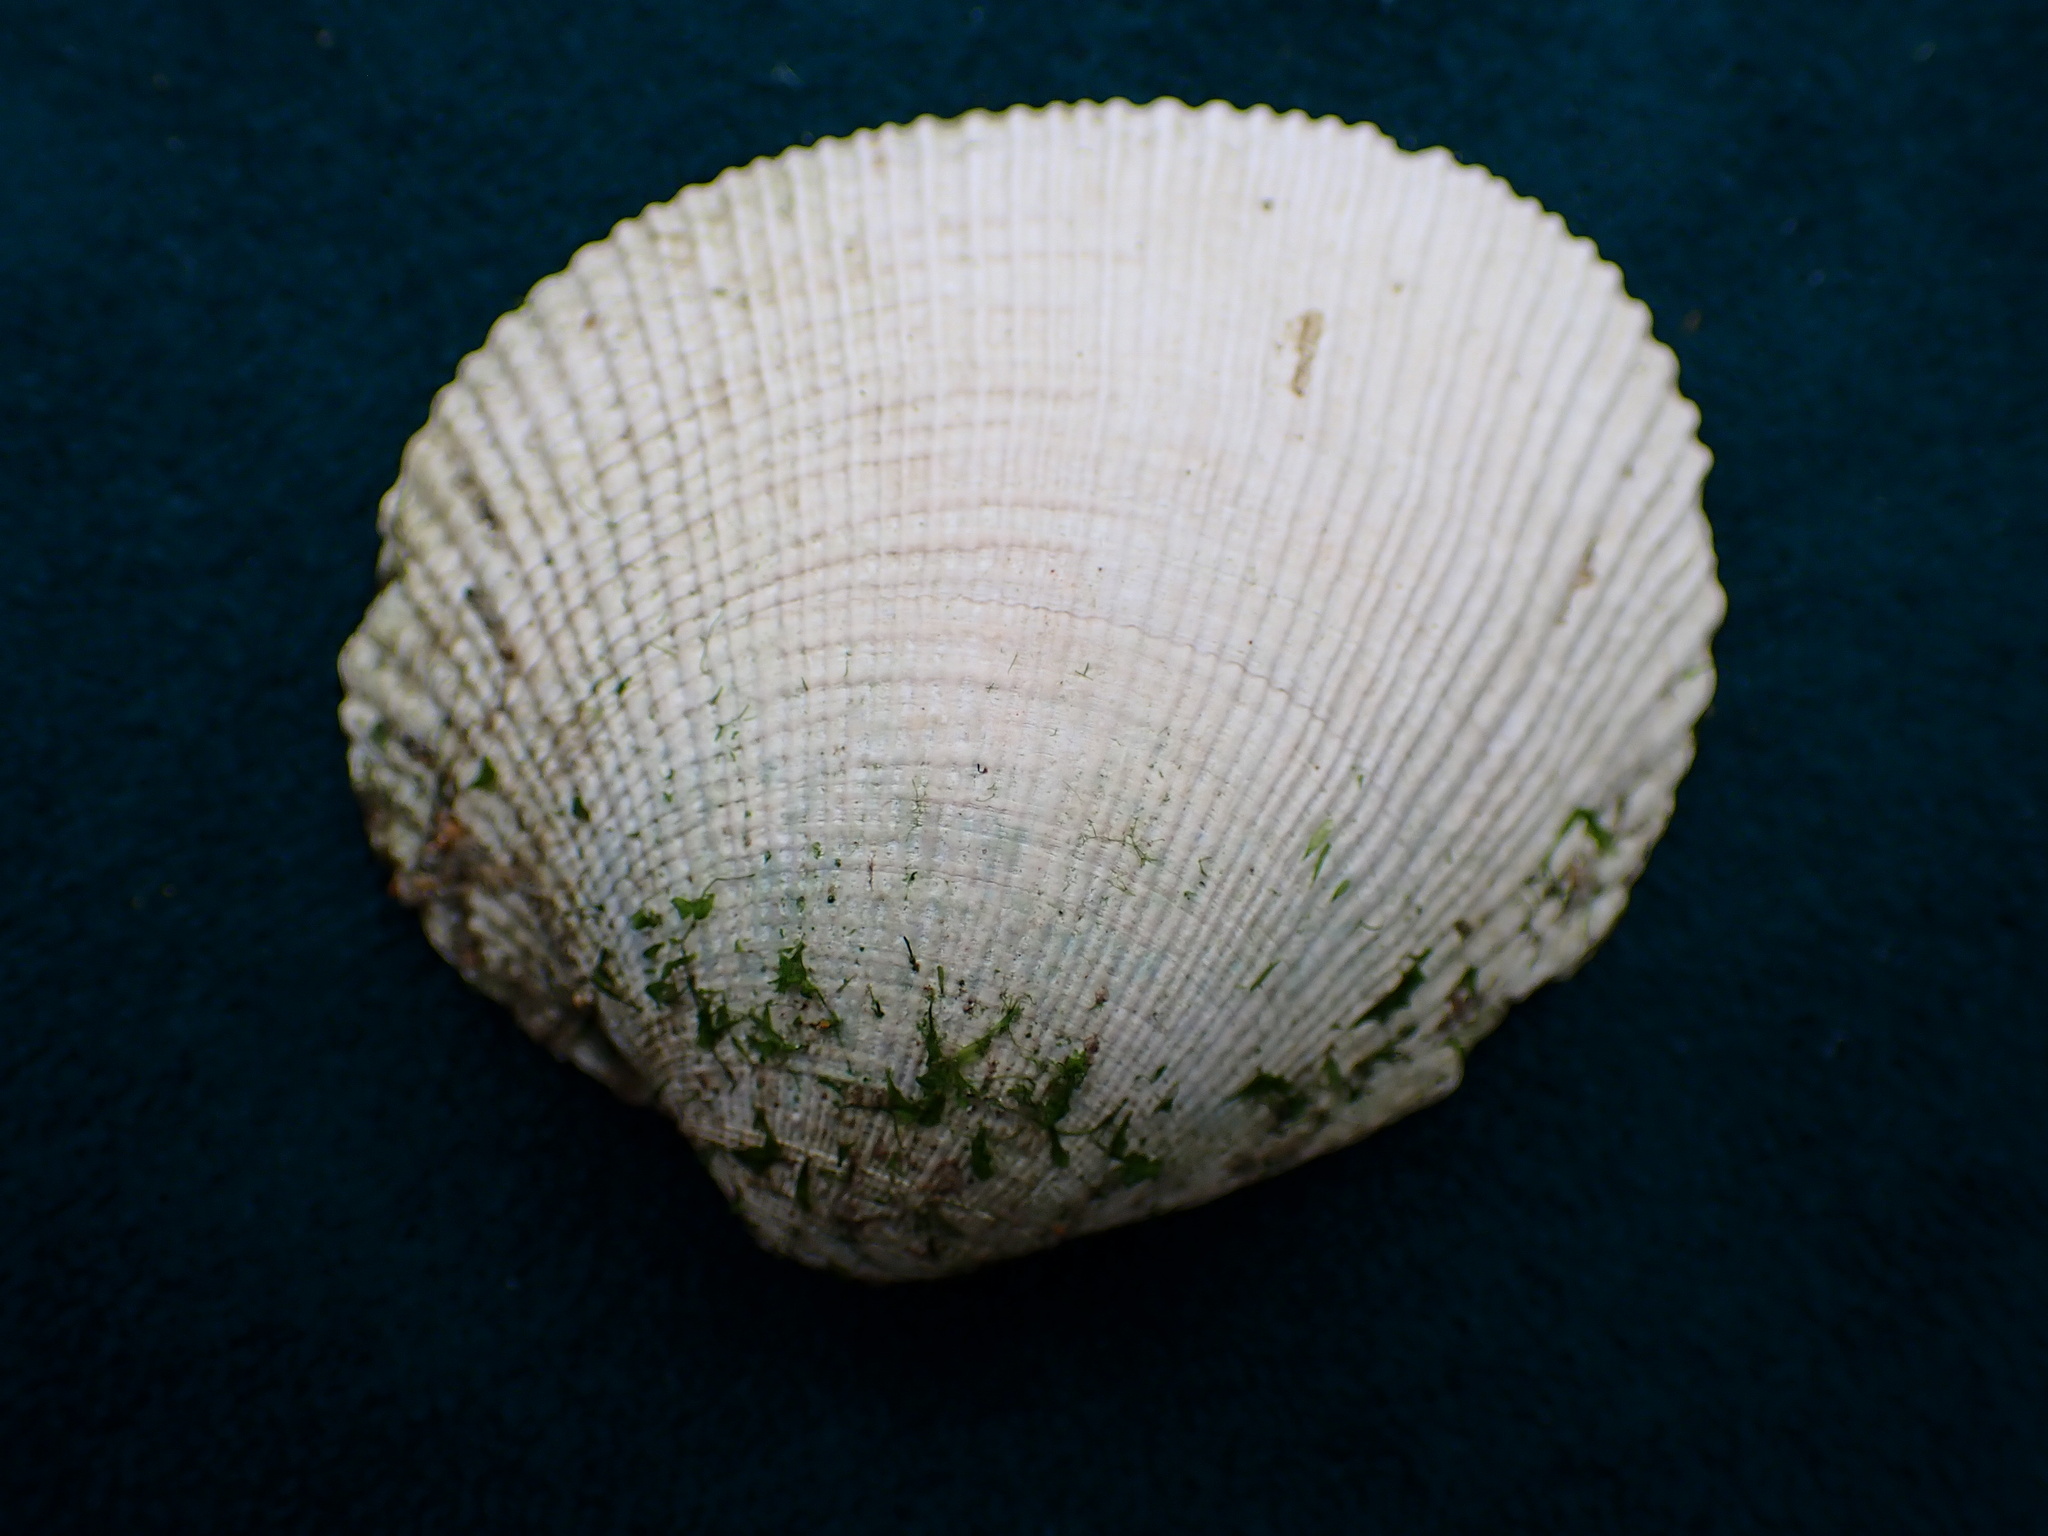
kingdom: Animalia
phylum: Mollusca
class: Bivalvia
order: Venerida
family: Veneridae
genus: Leukoma
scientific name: Leukoma staminea
